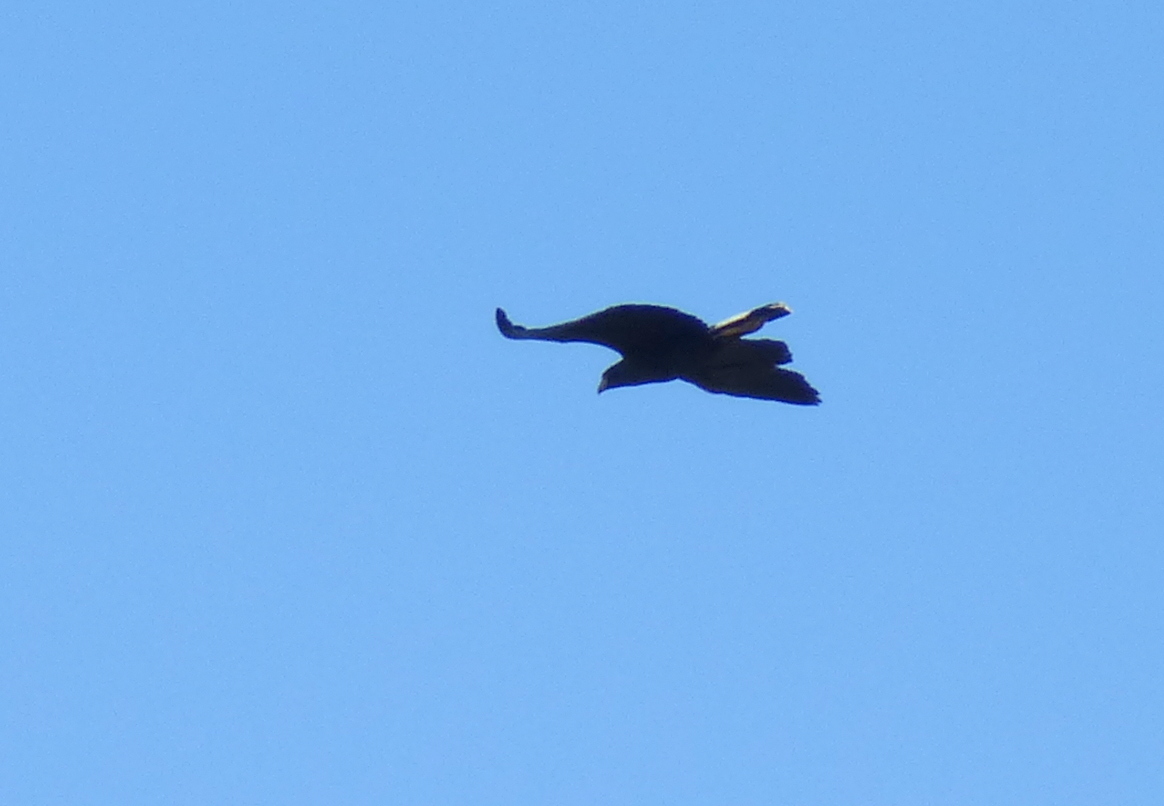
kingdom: Animalia
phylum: Chordata
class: Aves
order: Accipitriformes
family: Accipitridae
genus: Buteogallus
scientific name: Buteogallus urubitinga
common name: Great black hawk
